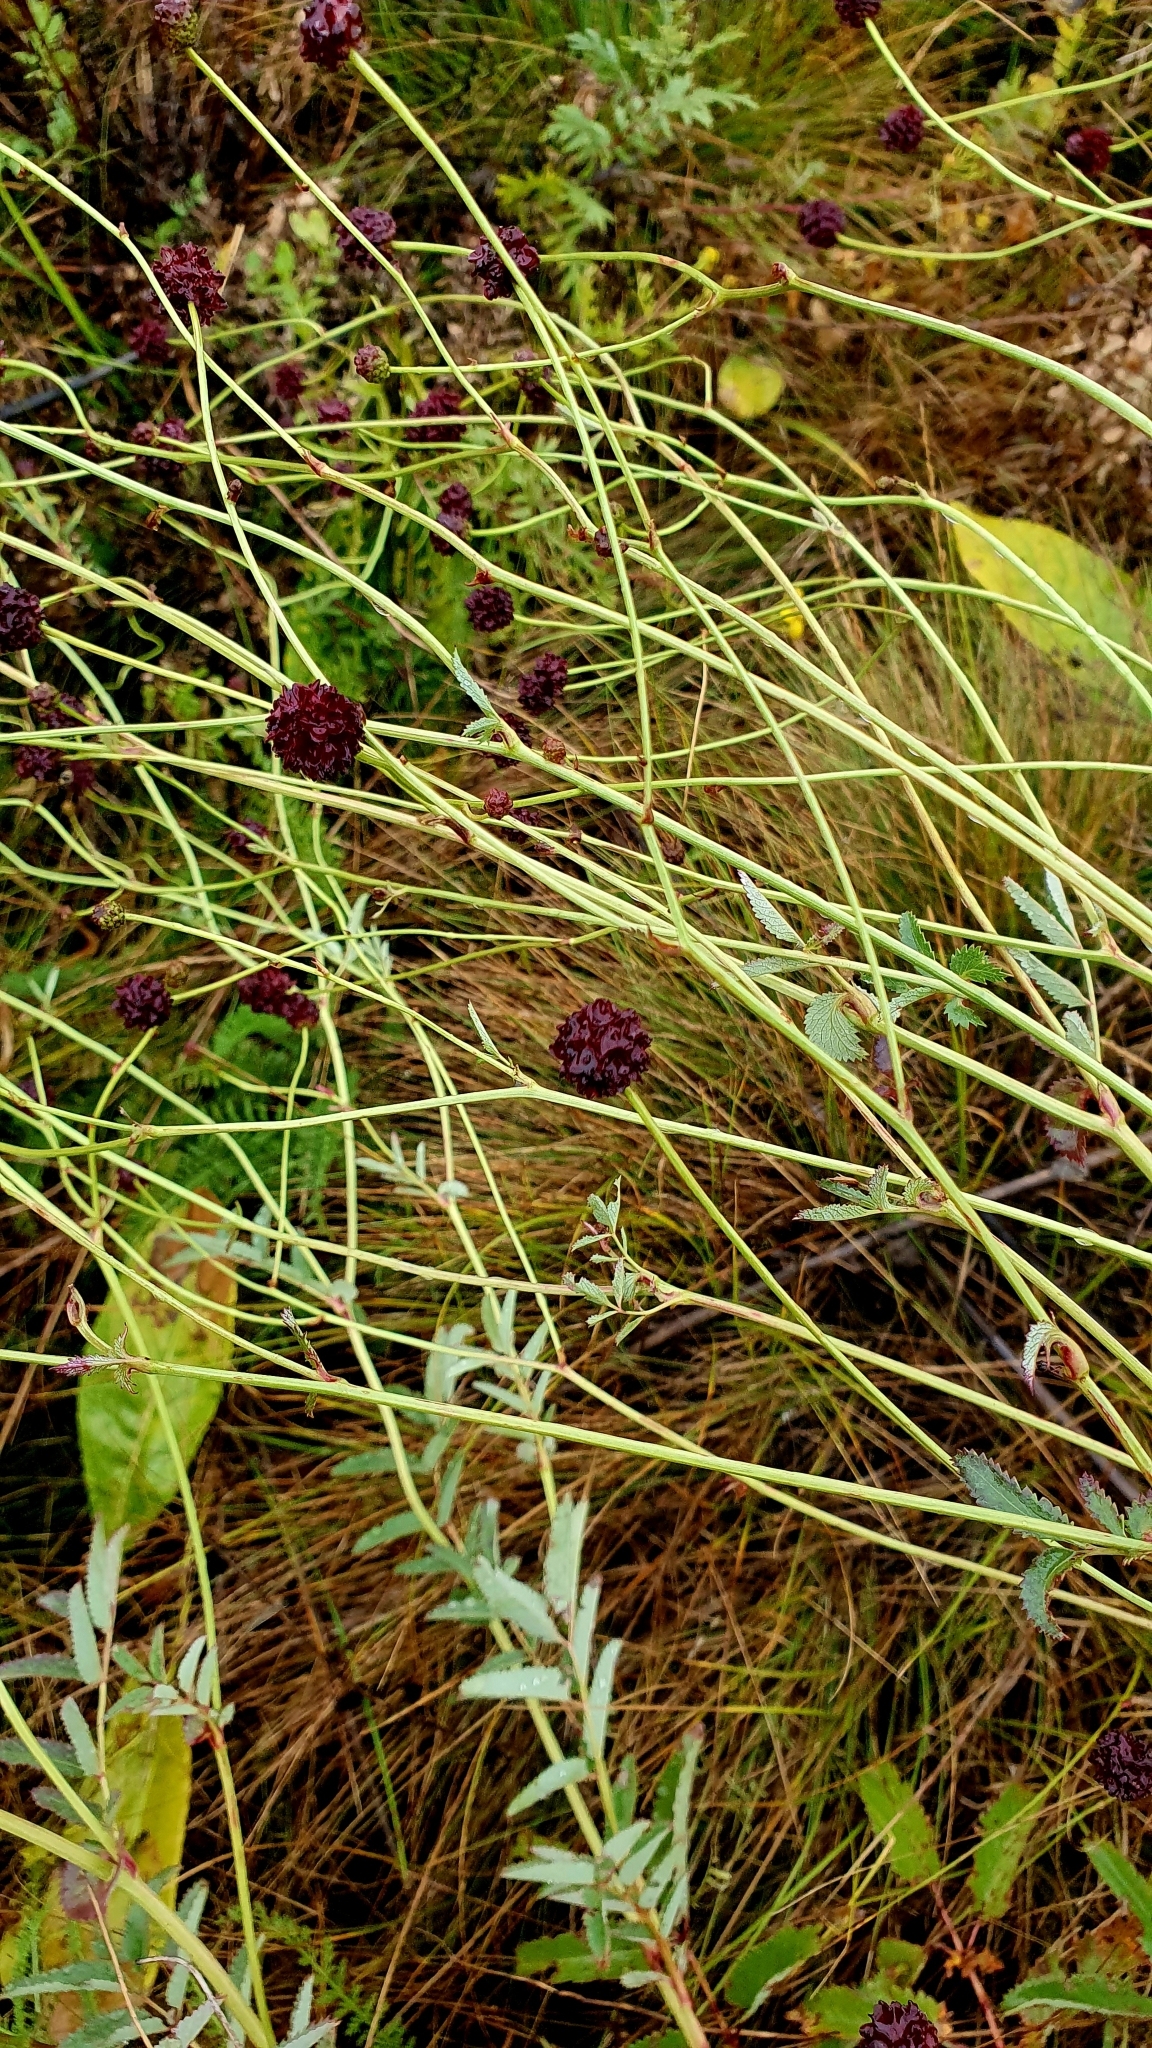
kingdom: Plantae
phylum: Tracheophyta
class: Magnoliopsida
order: Rosales
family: Rosaceae
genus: Sanguisorba
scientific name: Sanguisorba officinalis
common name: Great burnet
